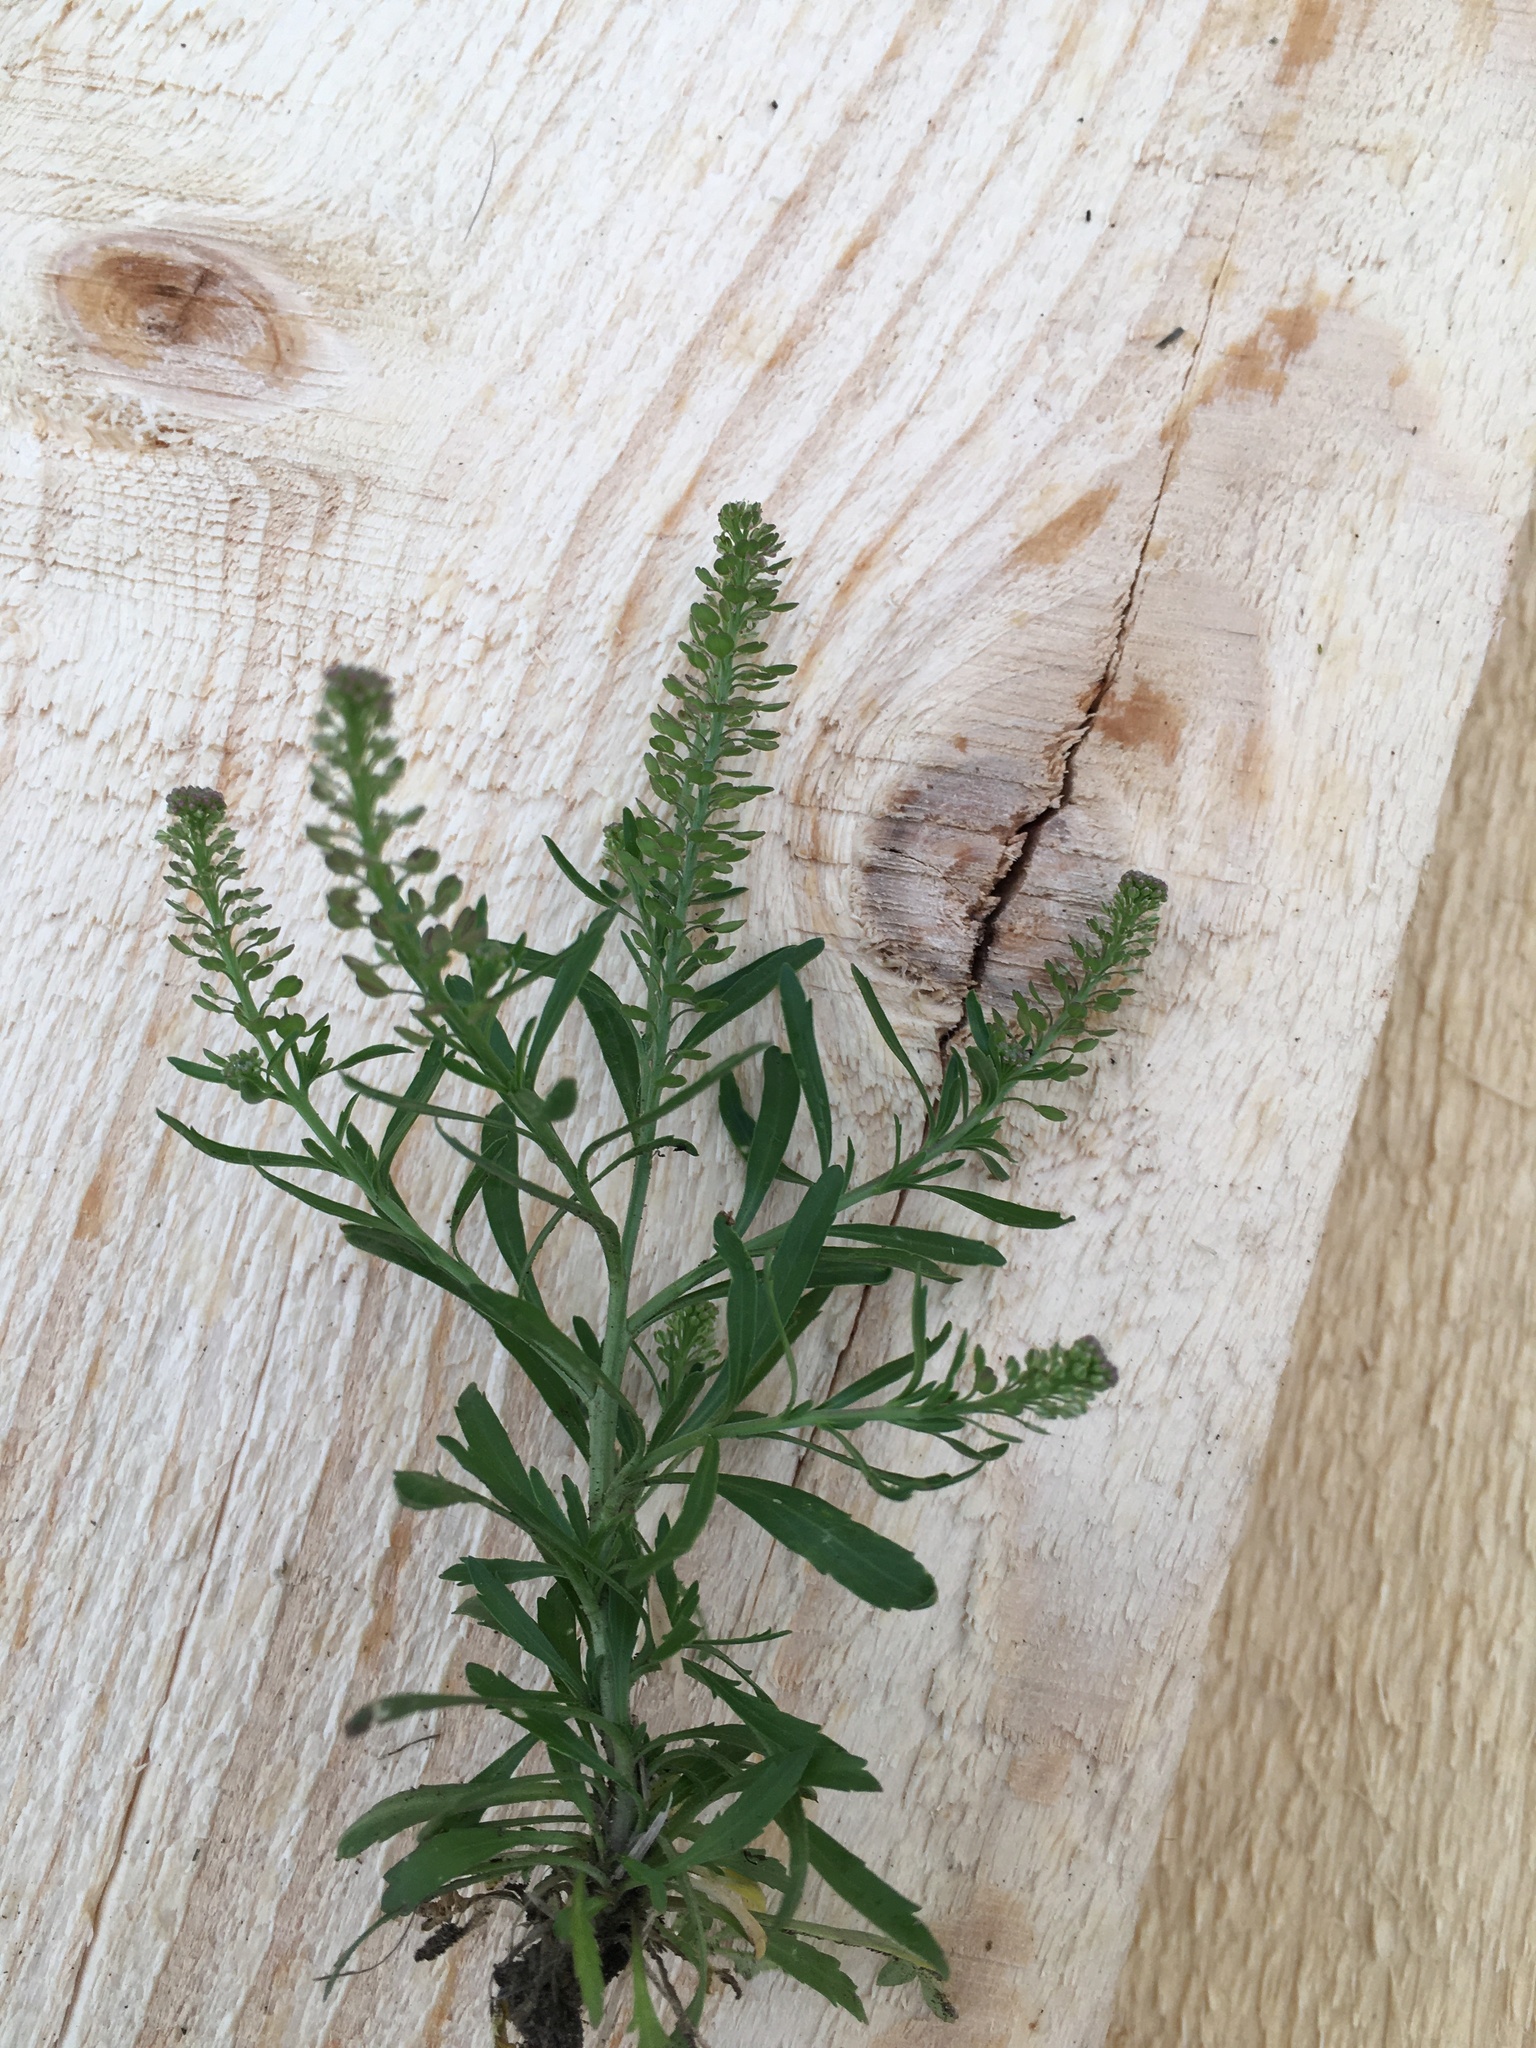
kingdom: Plantae
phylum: Tracheophyta
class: Magnoliopsida
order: Brassicales
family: Brassicaceae
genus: Lepidium
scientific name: Lepidium densiflorum
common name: Miner's pepperwort
